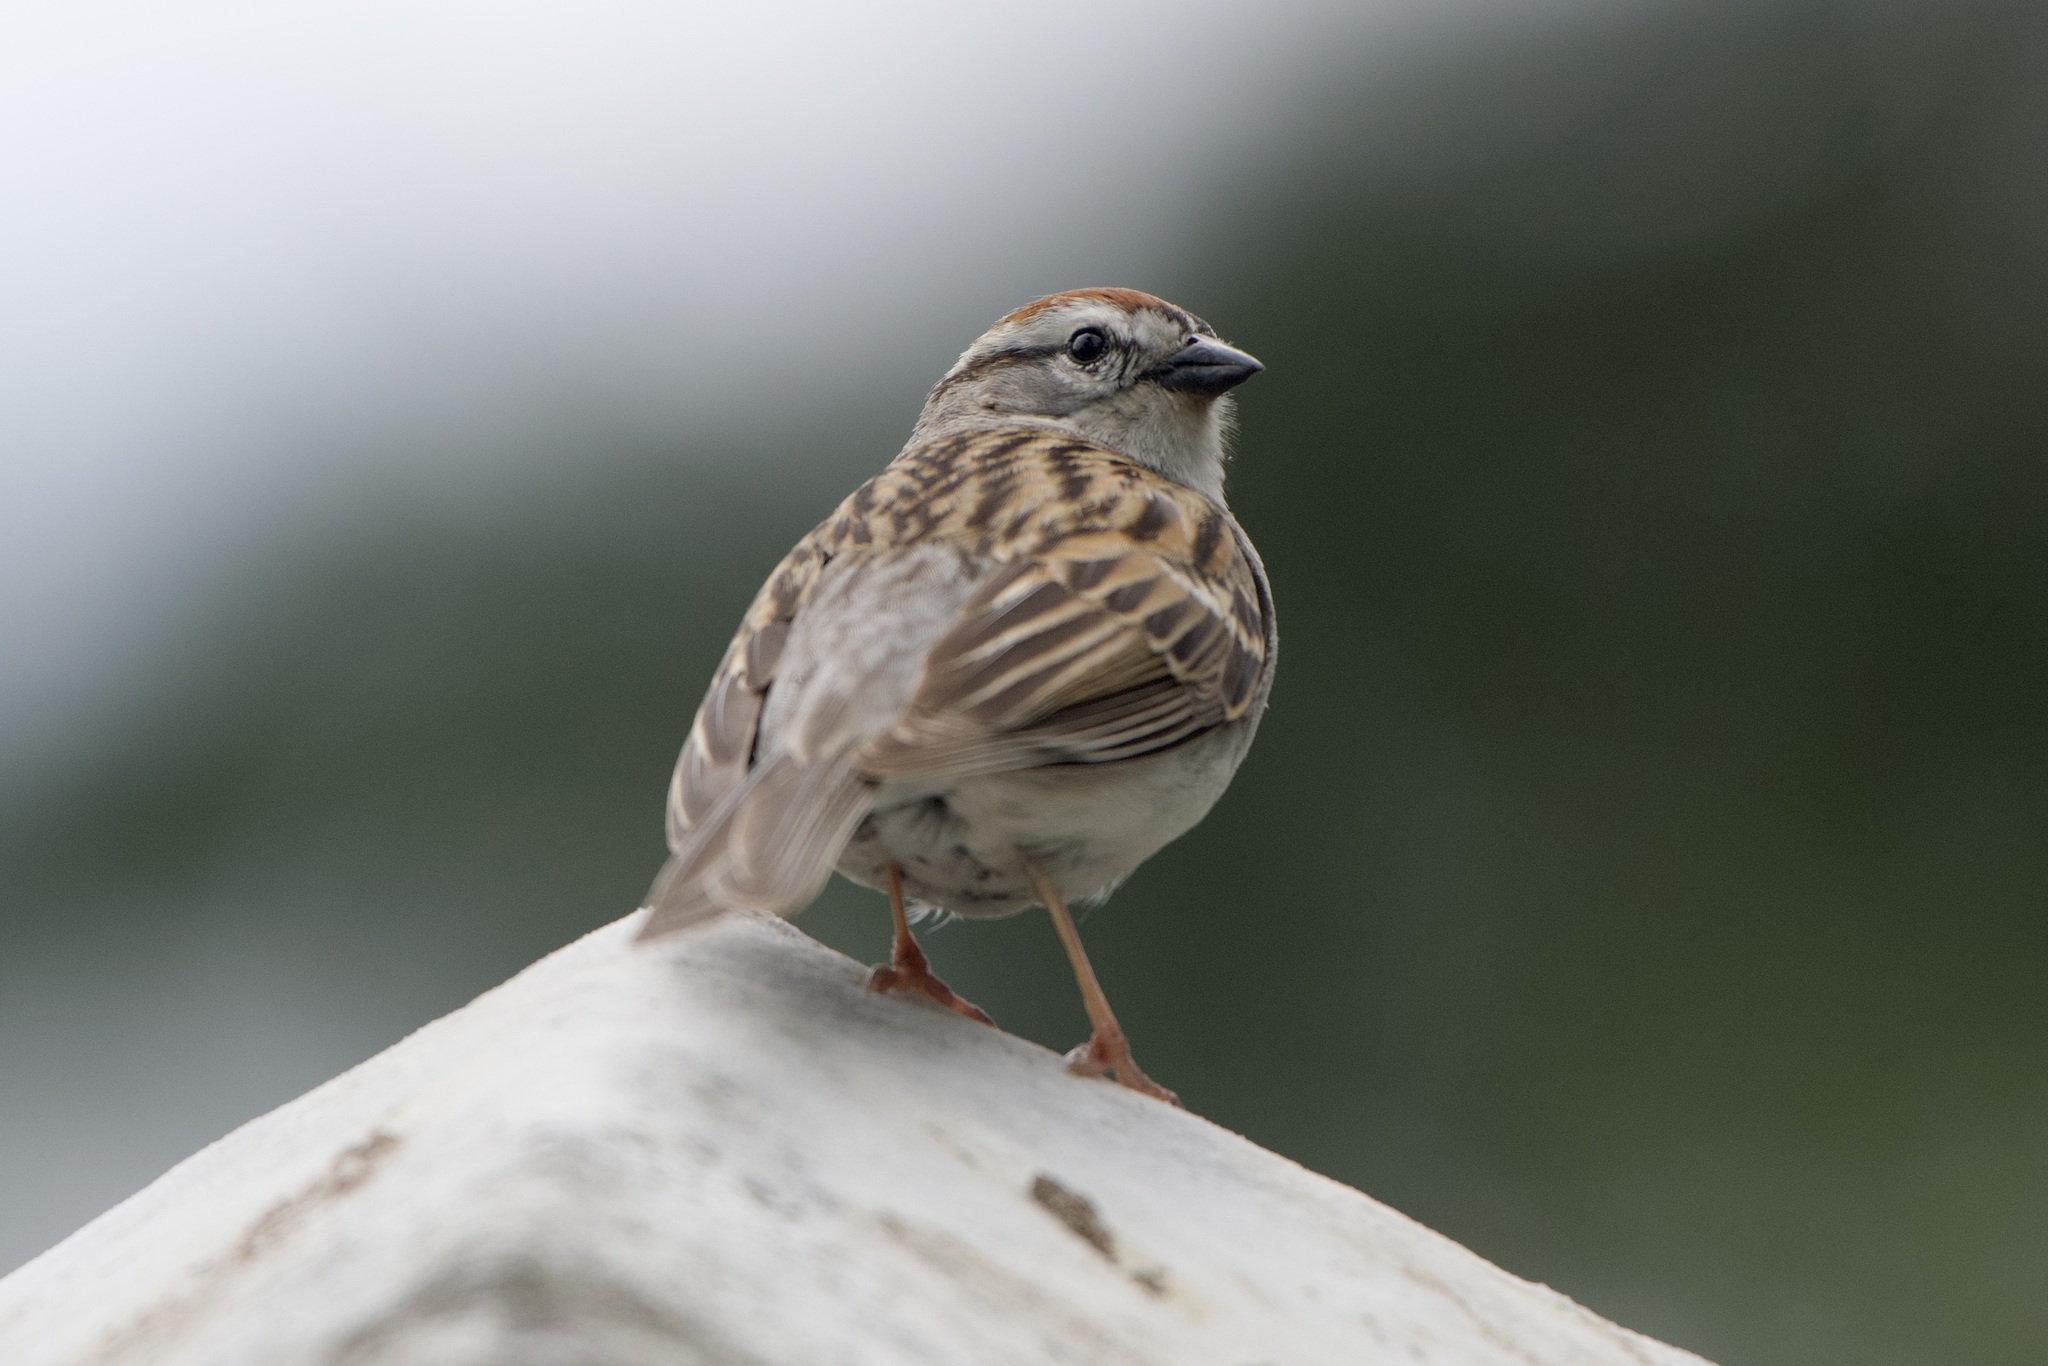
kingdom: Animalia
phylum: Chordata
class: Aves
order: Passeriformes
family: Passerellidae
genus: Spizella
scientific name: Spizella passerina
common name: Chipping sparrow
